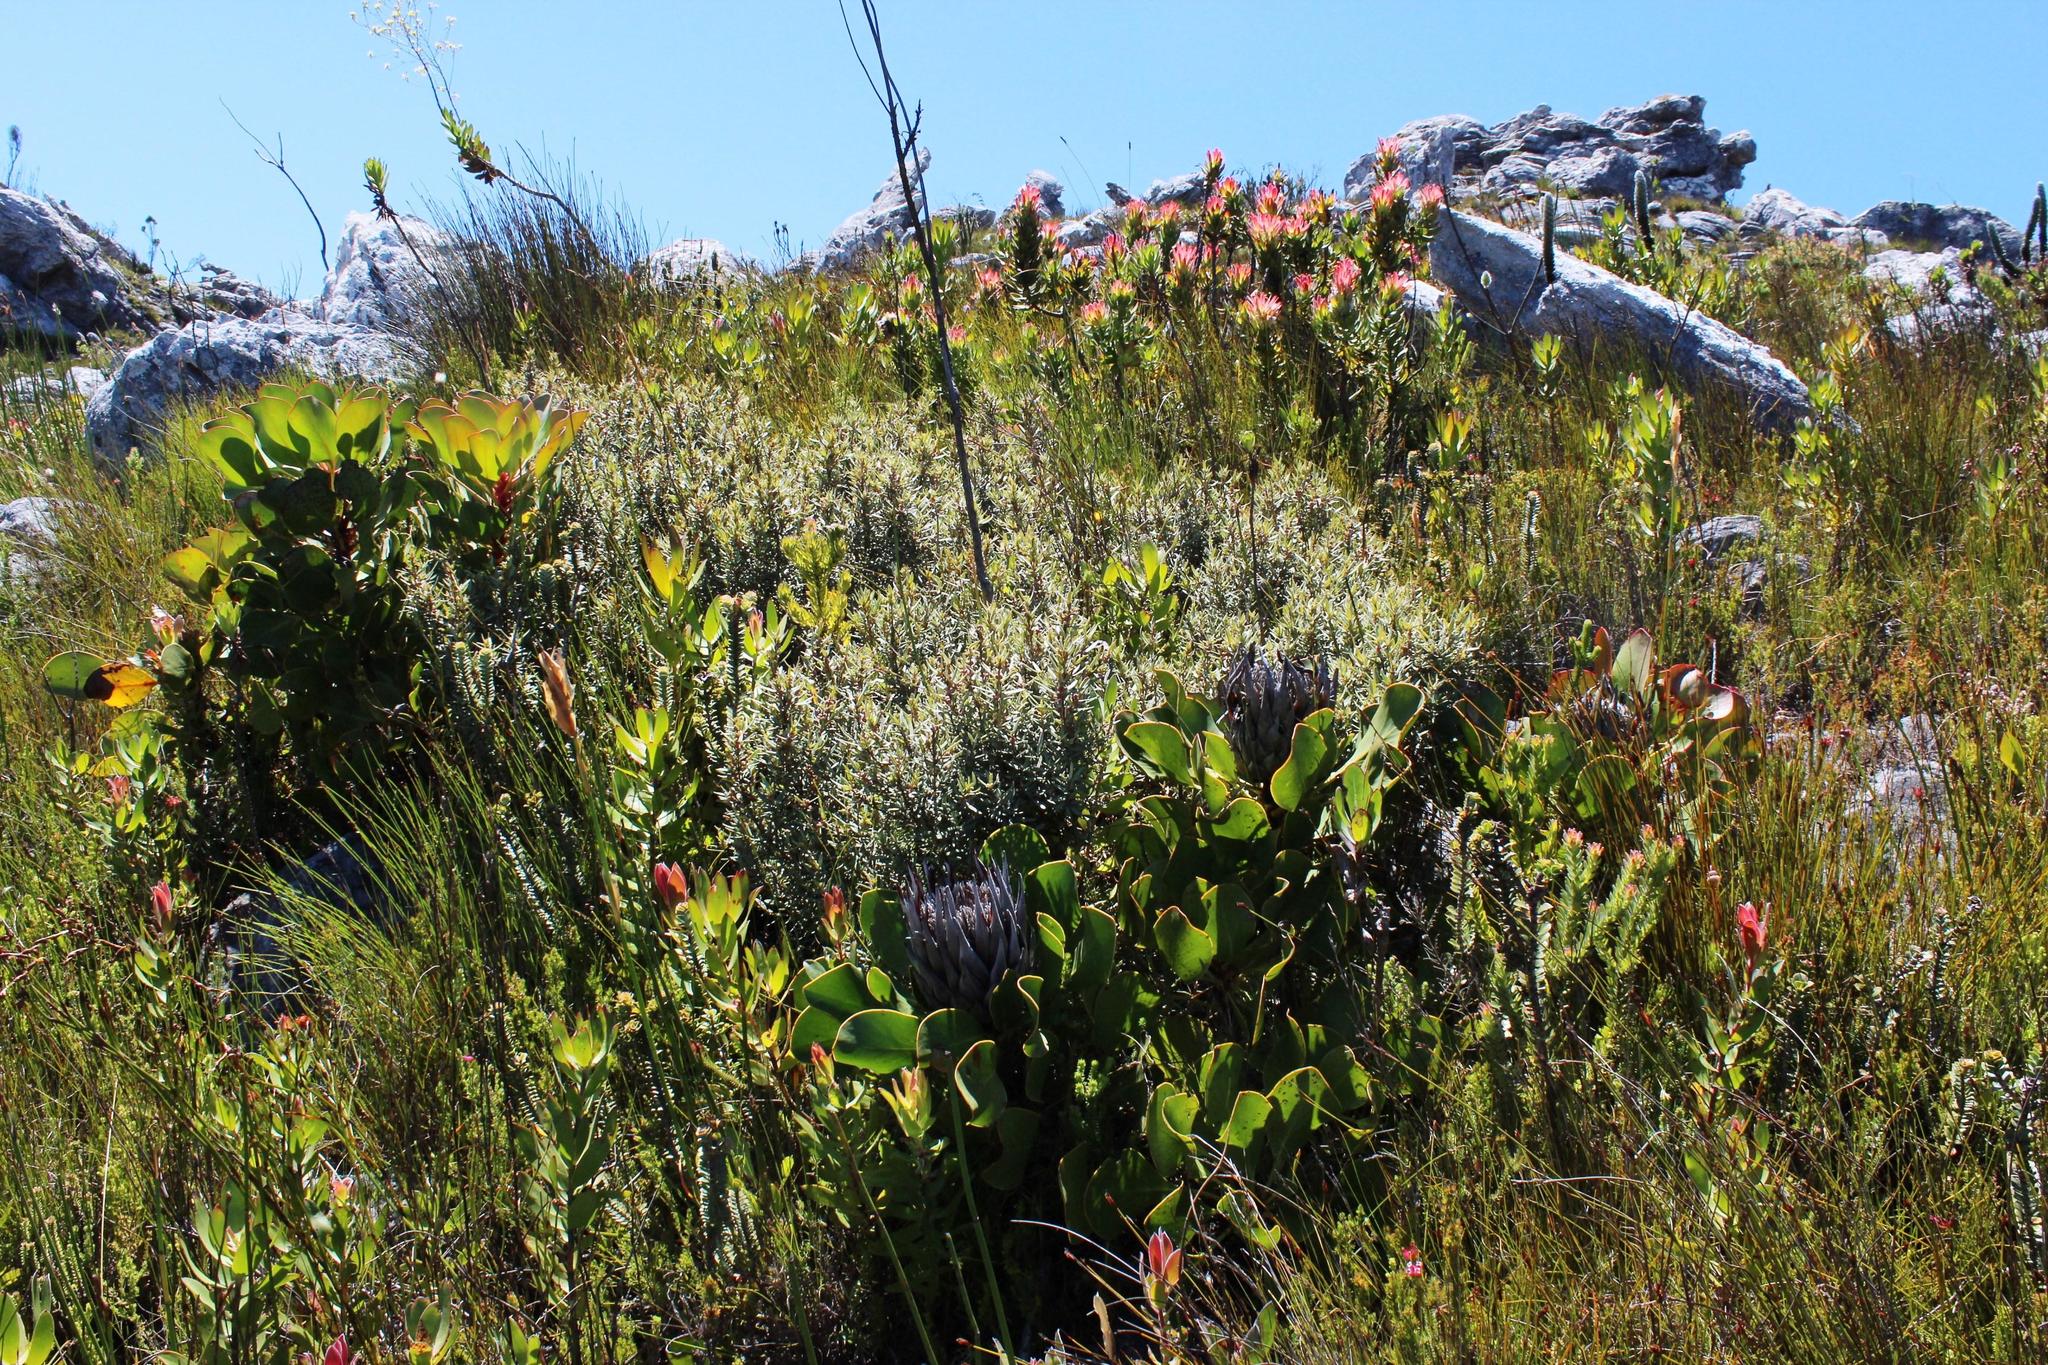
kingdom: Plantae
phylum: Tracheophyta
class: Magnoliopsida
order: Cornales
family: Grubbiaceae
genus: Grubbia
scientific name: Grubbia tomentosa
